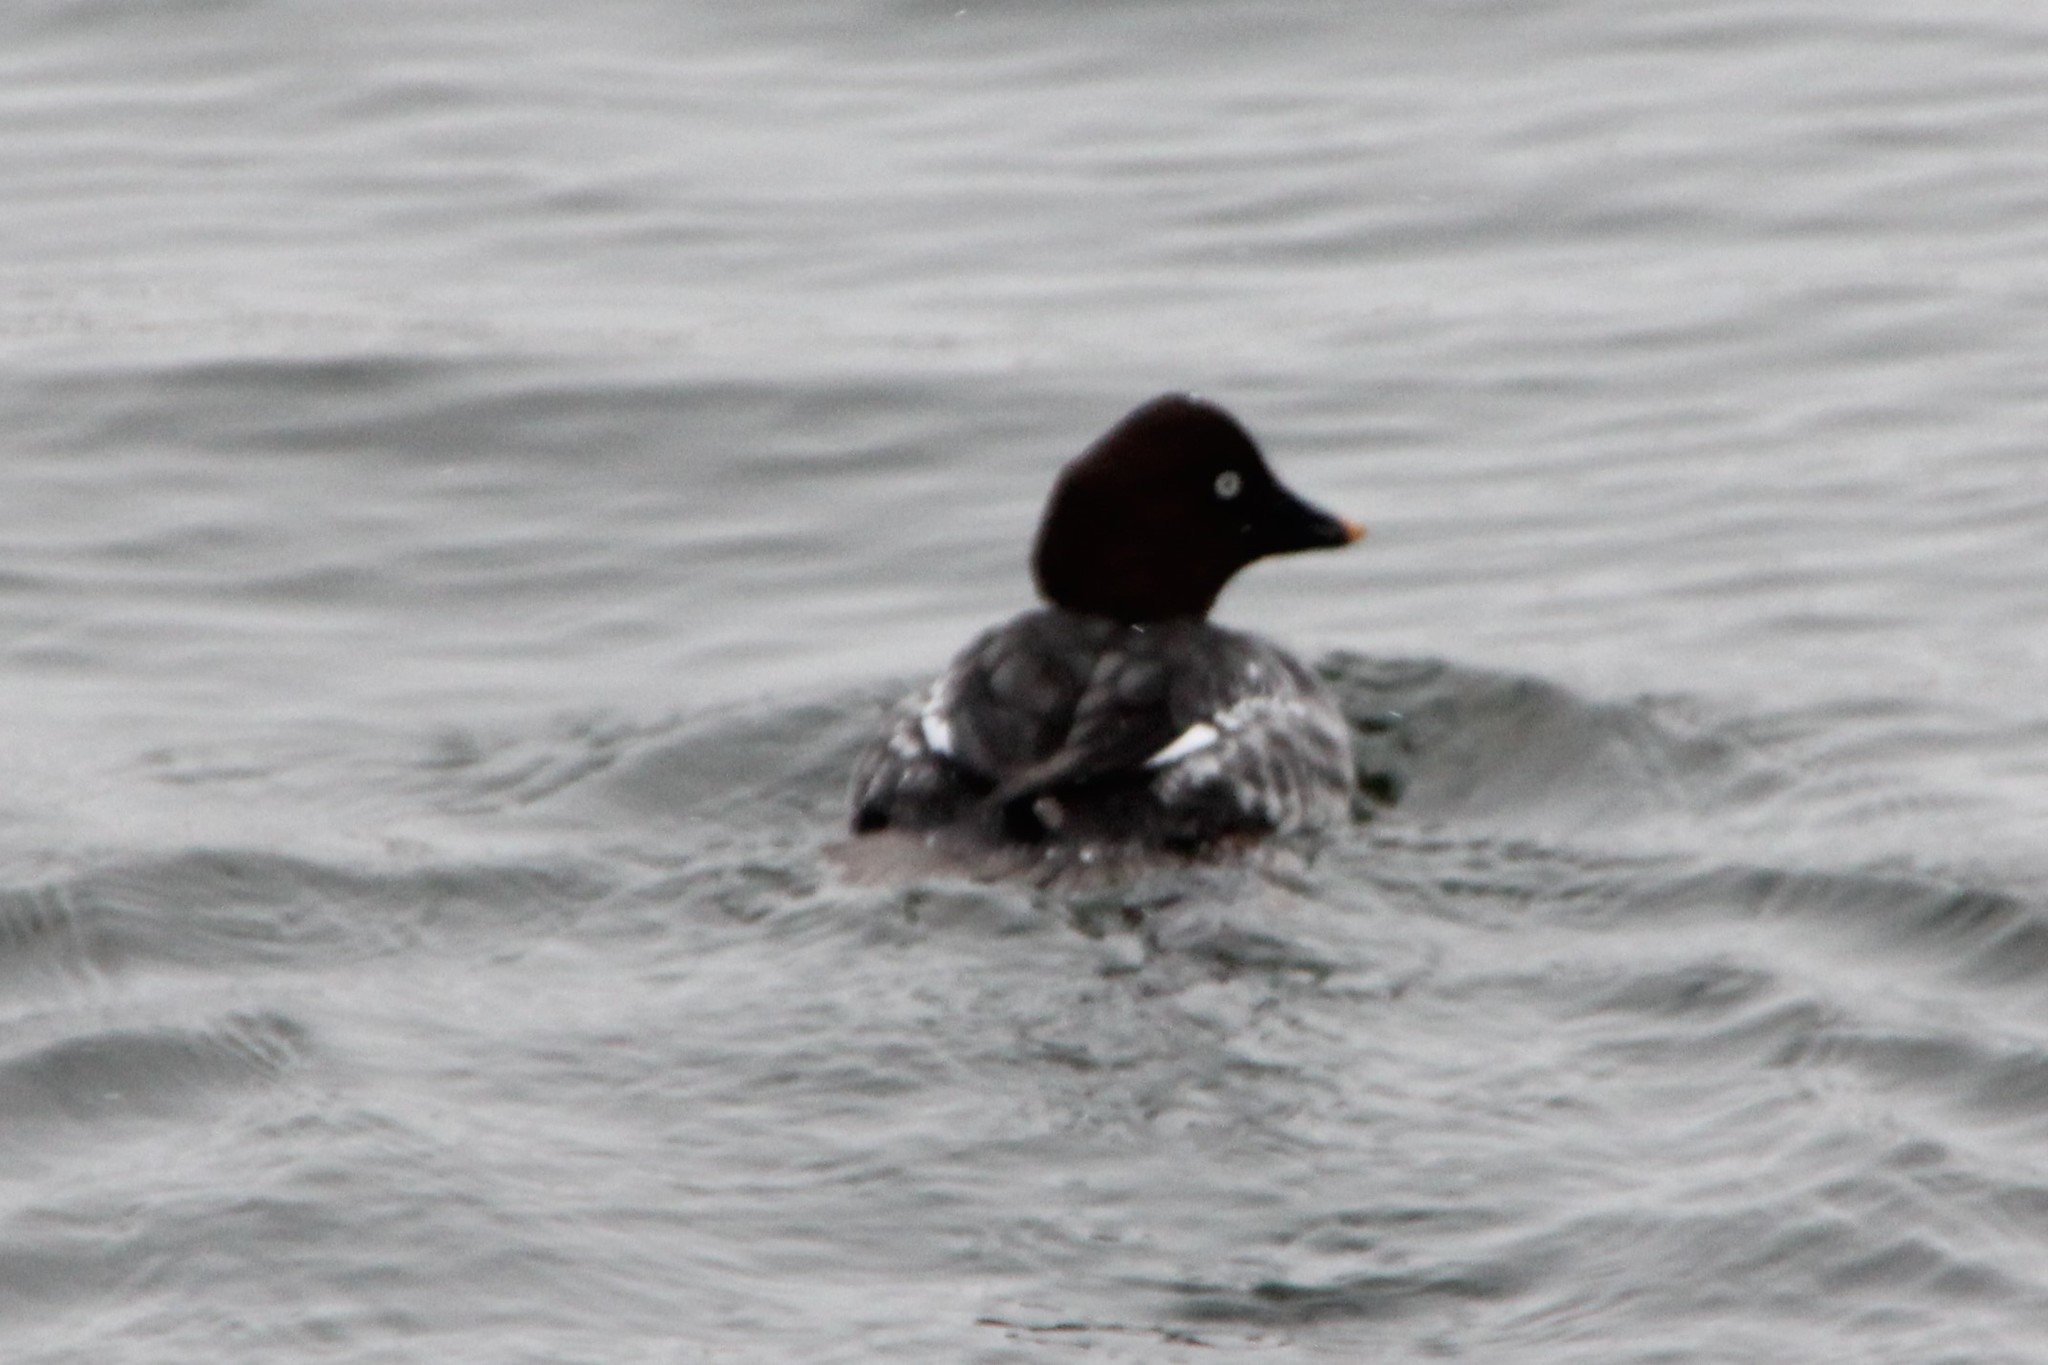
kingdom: Animalia
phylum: Chordata
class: Aves
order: Anseriformes
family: Anatidae
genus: Bucephala
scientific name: Bucephala clangula
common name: Common goldeneye
